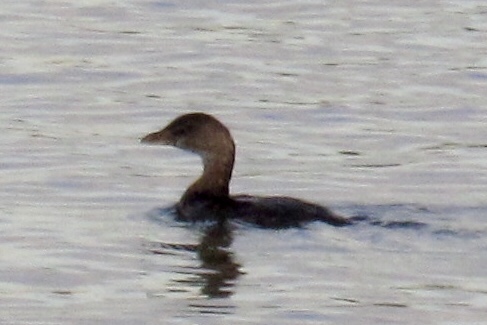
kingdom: Animalia
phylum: Chordata
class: Aves
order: Podicipediformes
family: Podicipedidae
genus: Podilymbus
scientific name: Podilymbus podiceps
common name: Pied-billed grebe
